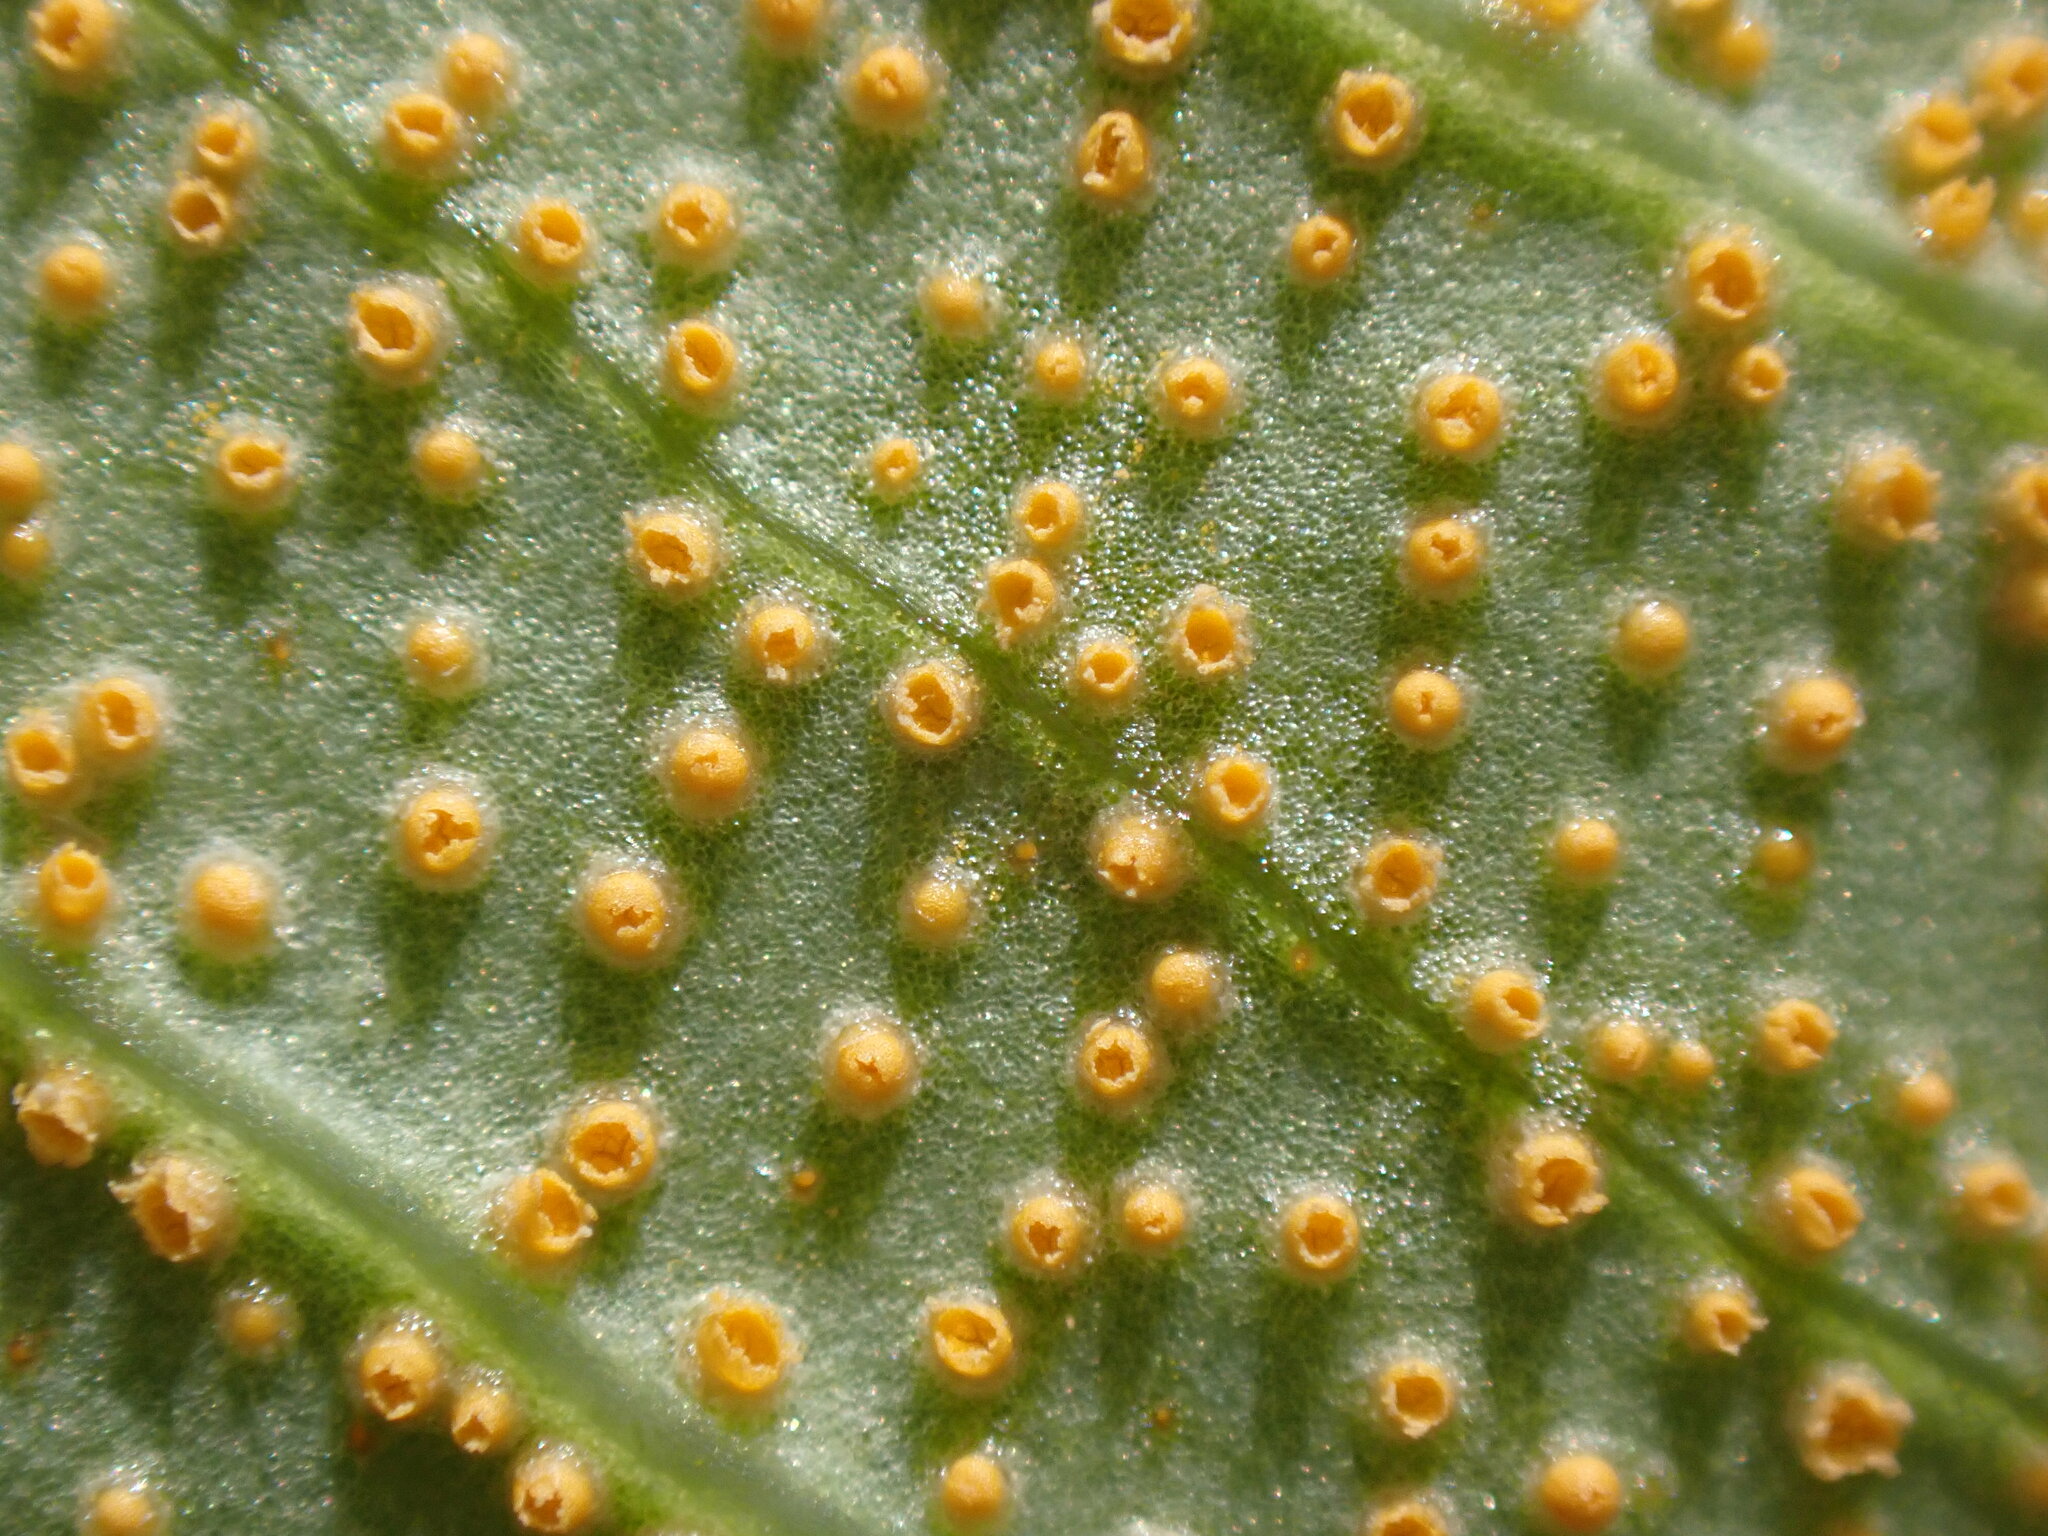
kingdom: Fungi
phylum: Basidiomycota
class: Pucciniomycetes
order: Pucciniales
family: Pucciniaceae
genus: Uromyces
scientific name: Uromyces ari-triphylli
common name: Jack-in-the-pulpit rust
